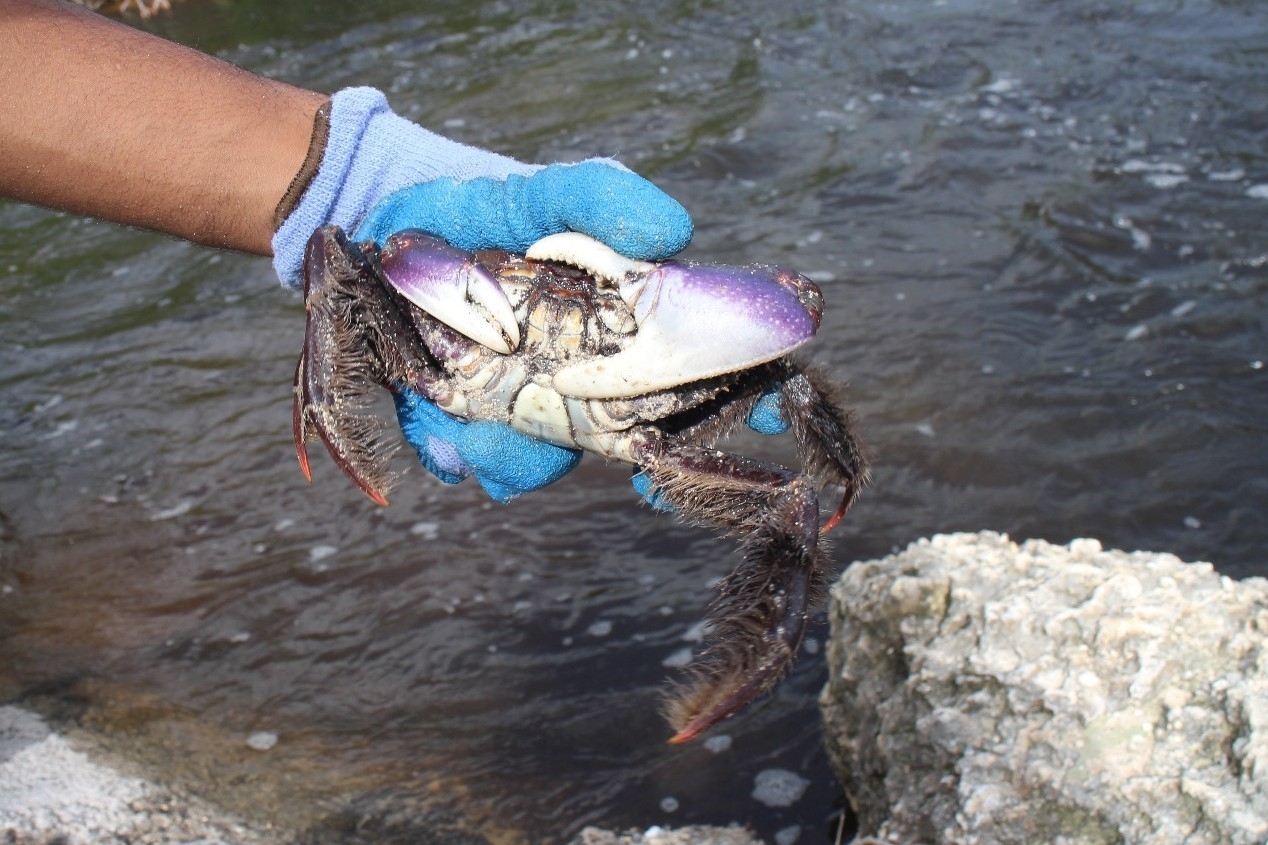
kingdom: Animalia
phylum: Arthropoda
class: Malacostraca
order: Decapoda
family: Ocypodidae
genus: Ucides
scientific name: Ucides cordatus
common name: Swamp ghost crab
